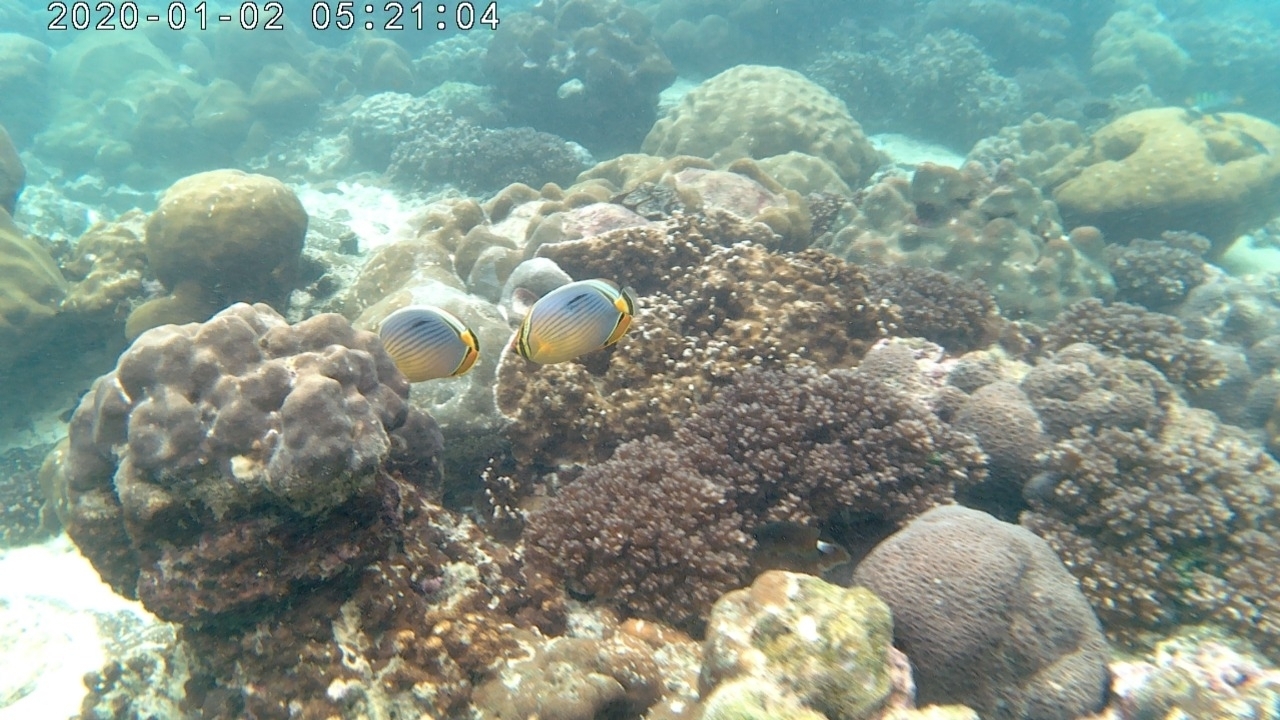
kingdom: Animalia
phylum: Chordata
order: Perciformes
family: Chaetodontidae
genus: Chaetodon
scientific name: Chaetodon trifasciatus
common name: Redfin butterflyfish
